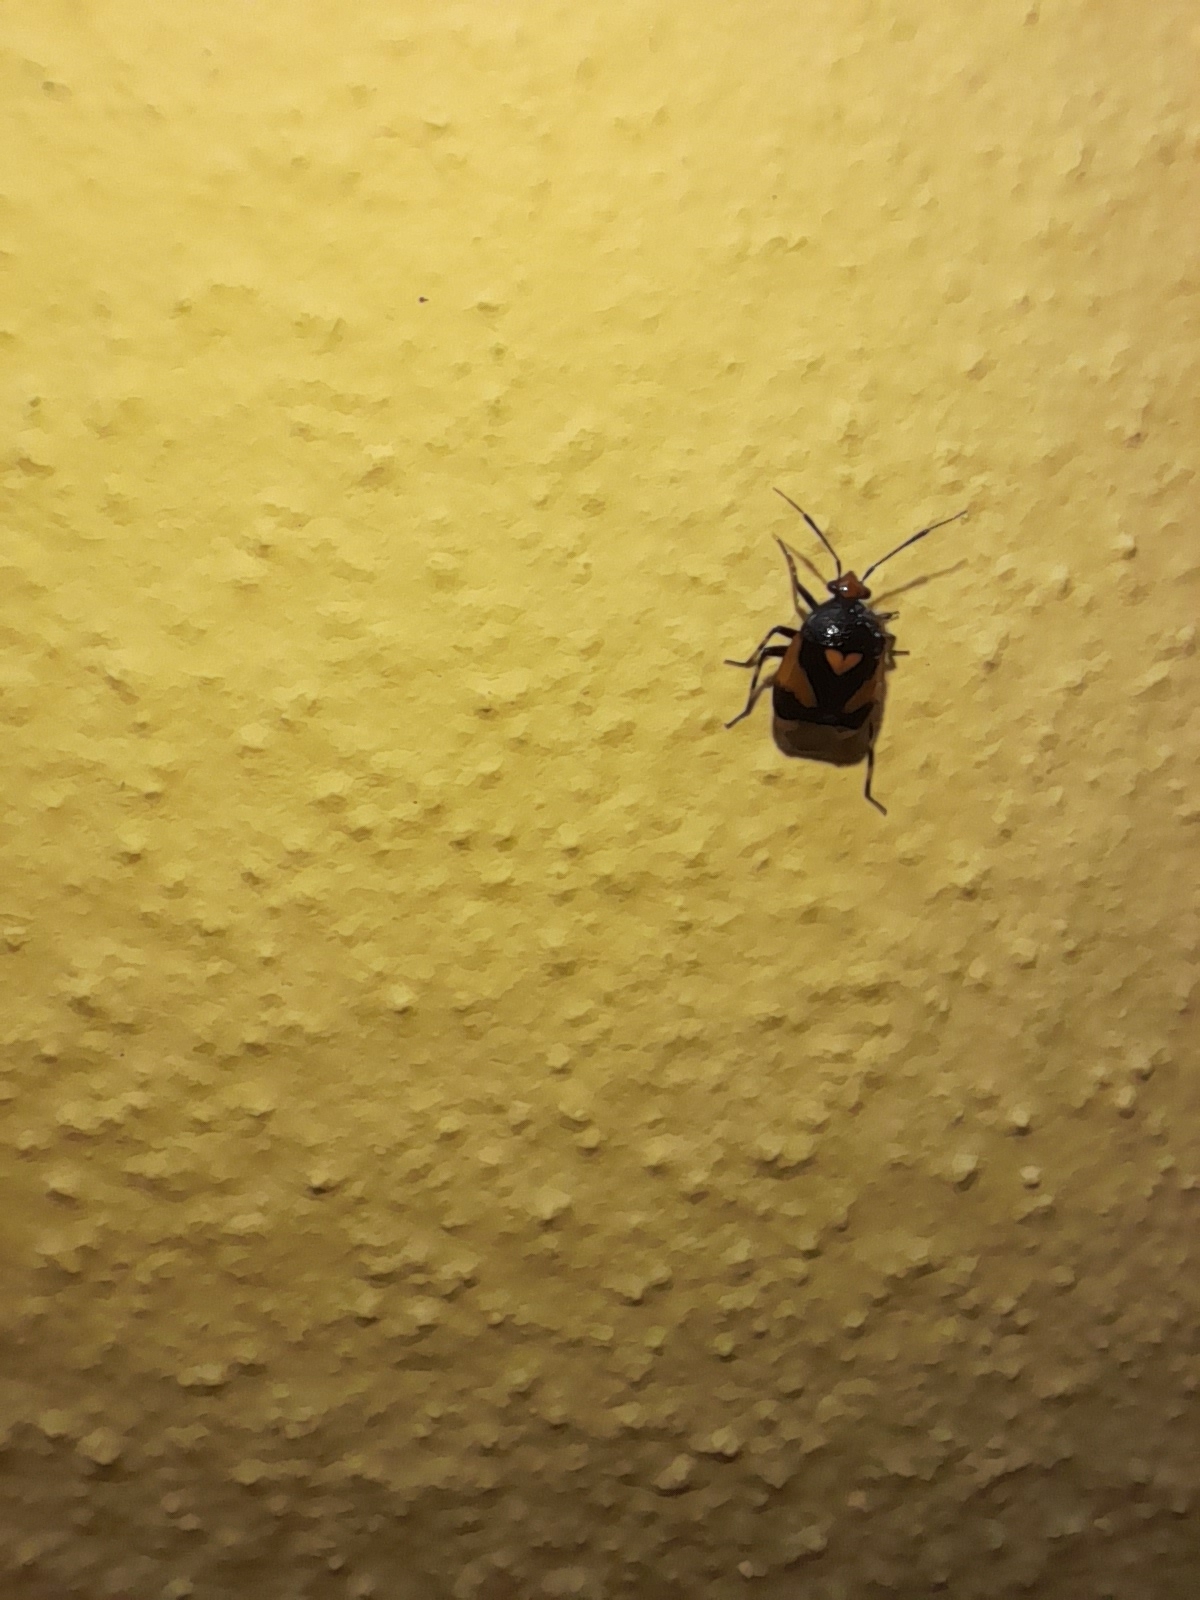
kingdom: Animalia
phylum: Arthropoda
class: Insecta
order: Hemiptera
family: Miridae
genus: Deraeocoris
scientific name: Deraeocoris schach
